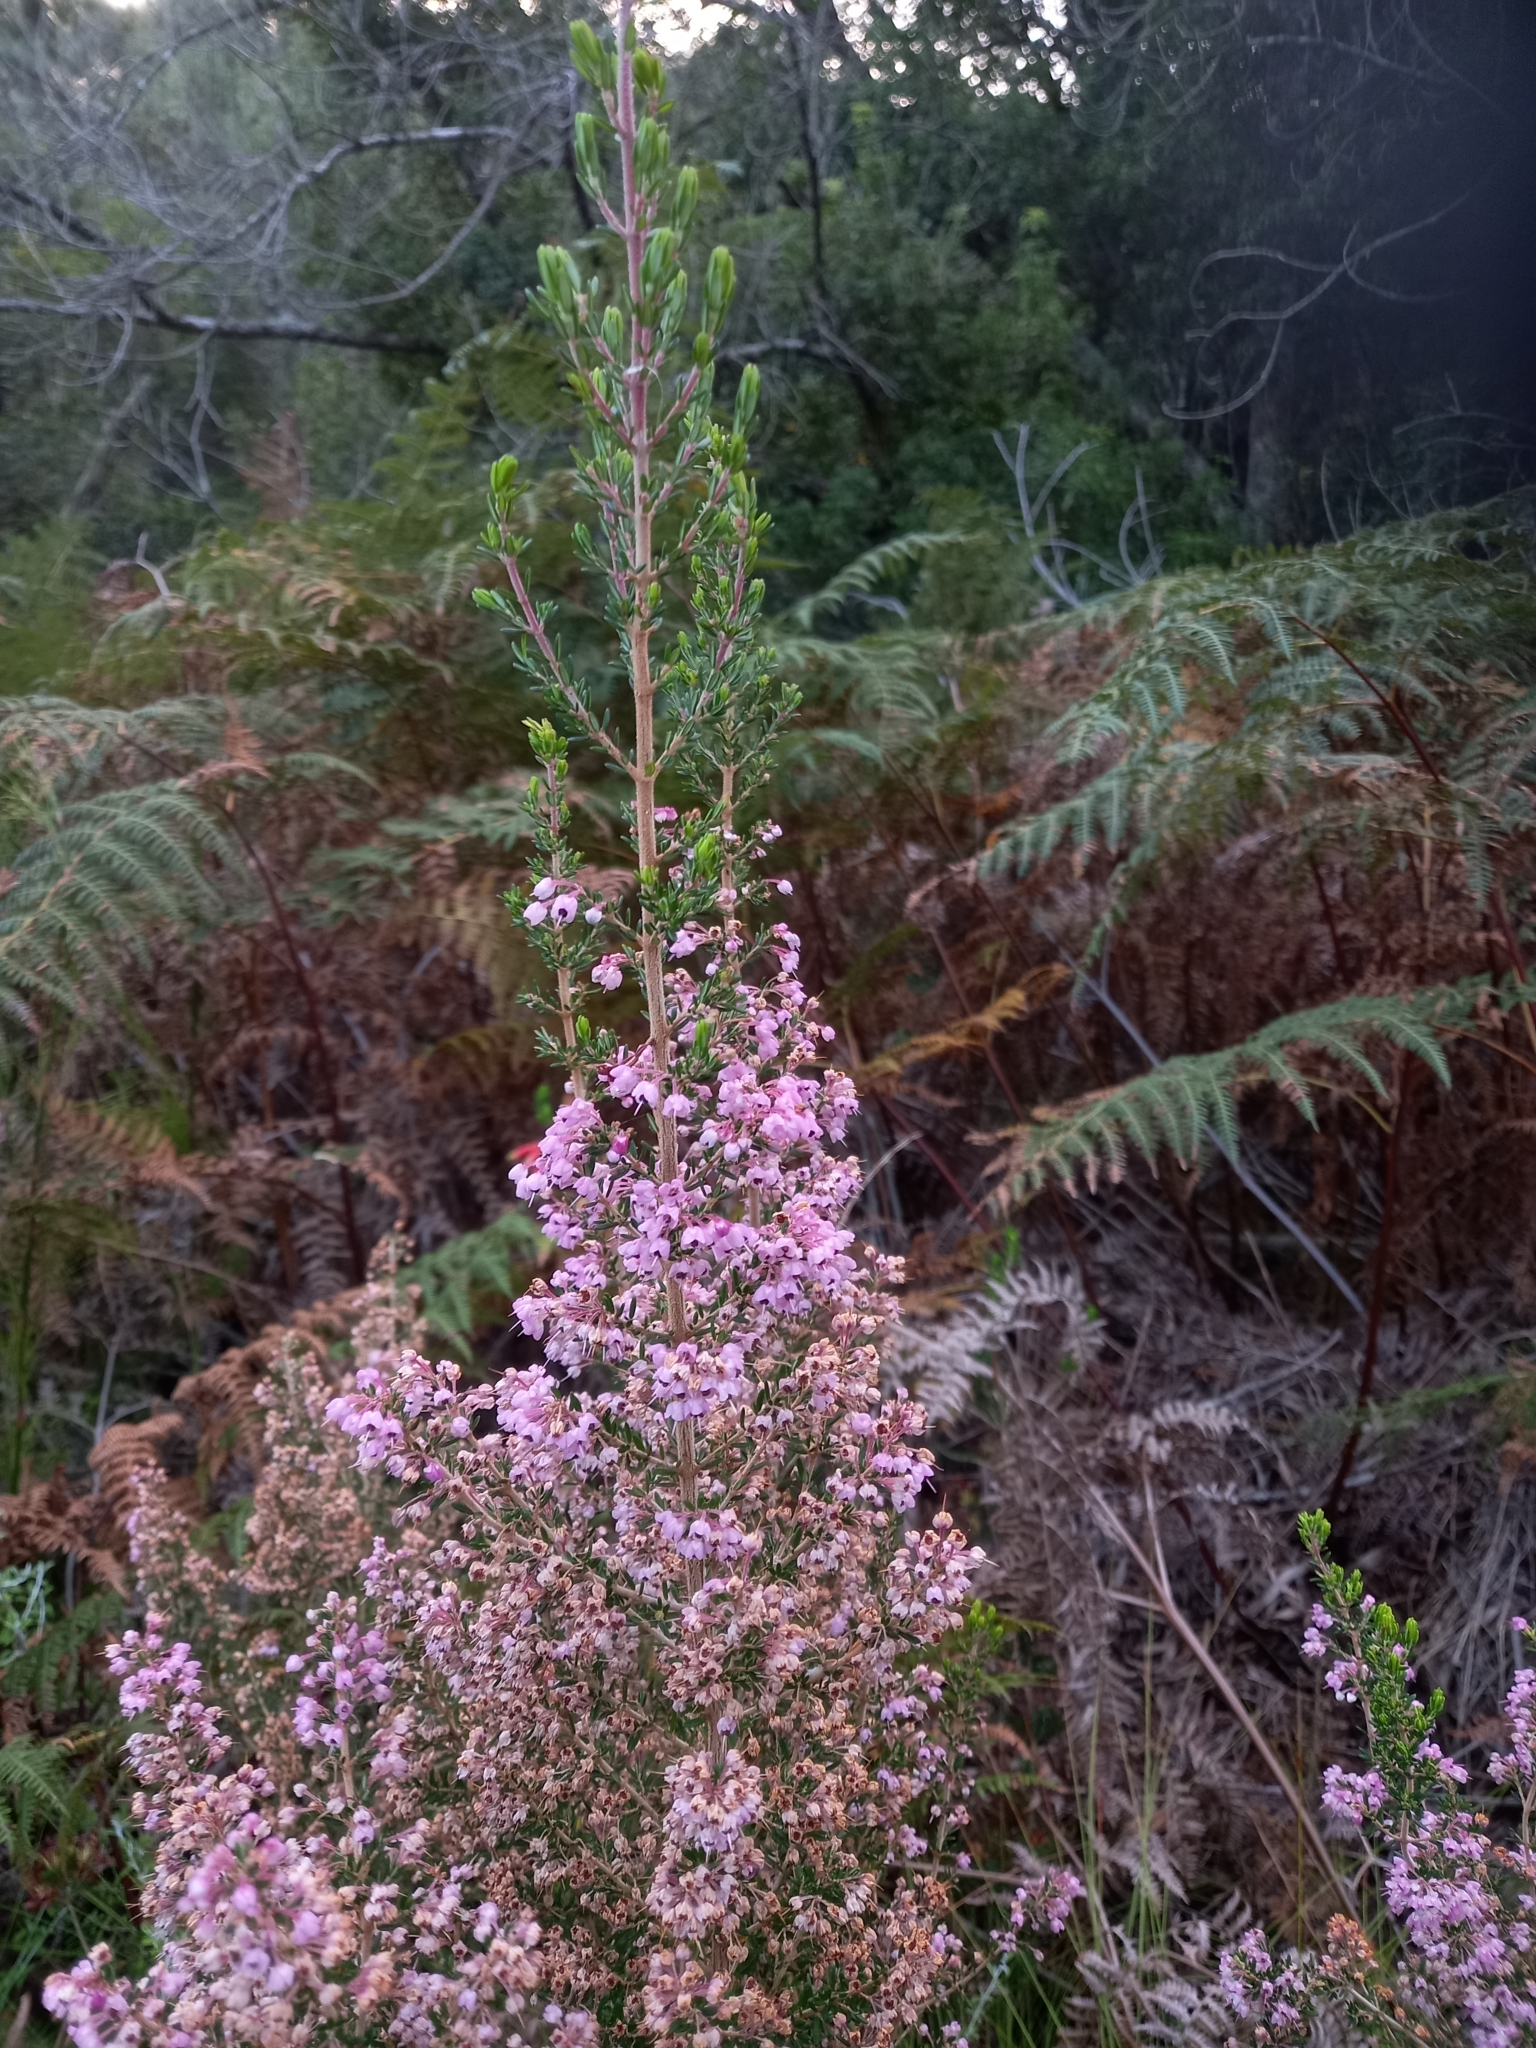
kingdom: Plantae
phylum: Tracheophyta
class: Magnoliopsida
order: Ericales
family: Ericaceae
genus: Erica
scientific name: Erica canaliculata
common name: Hairy grey heather
